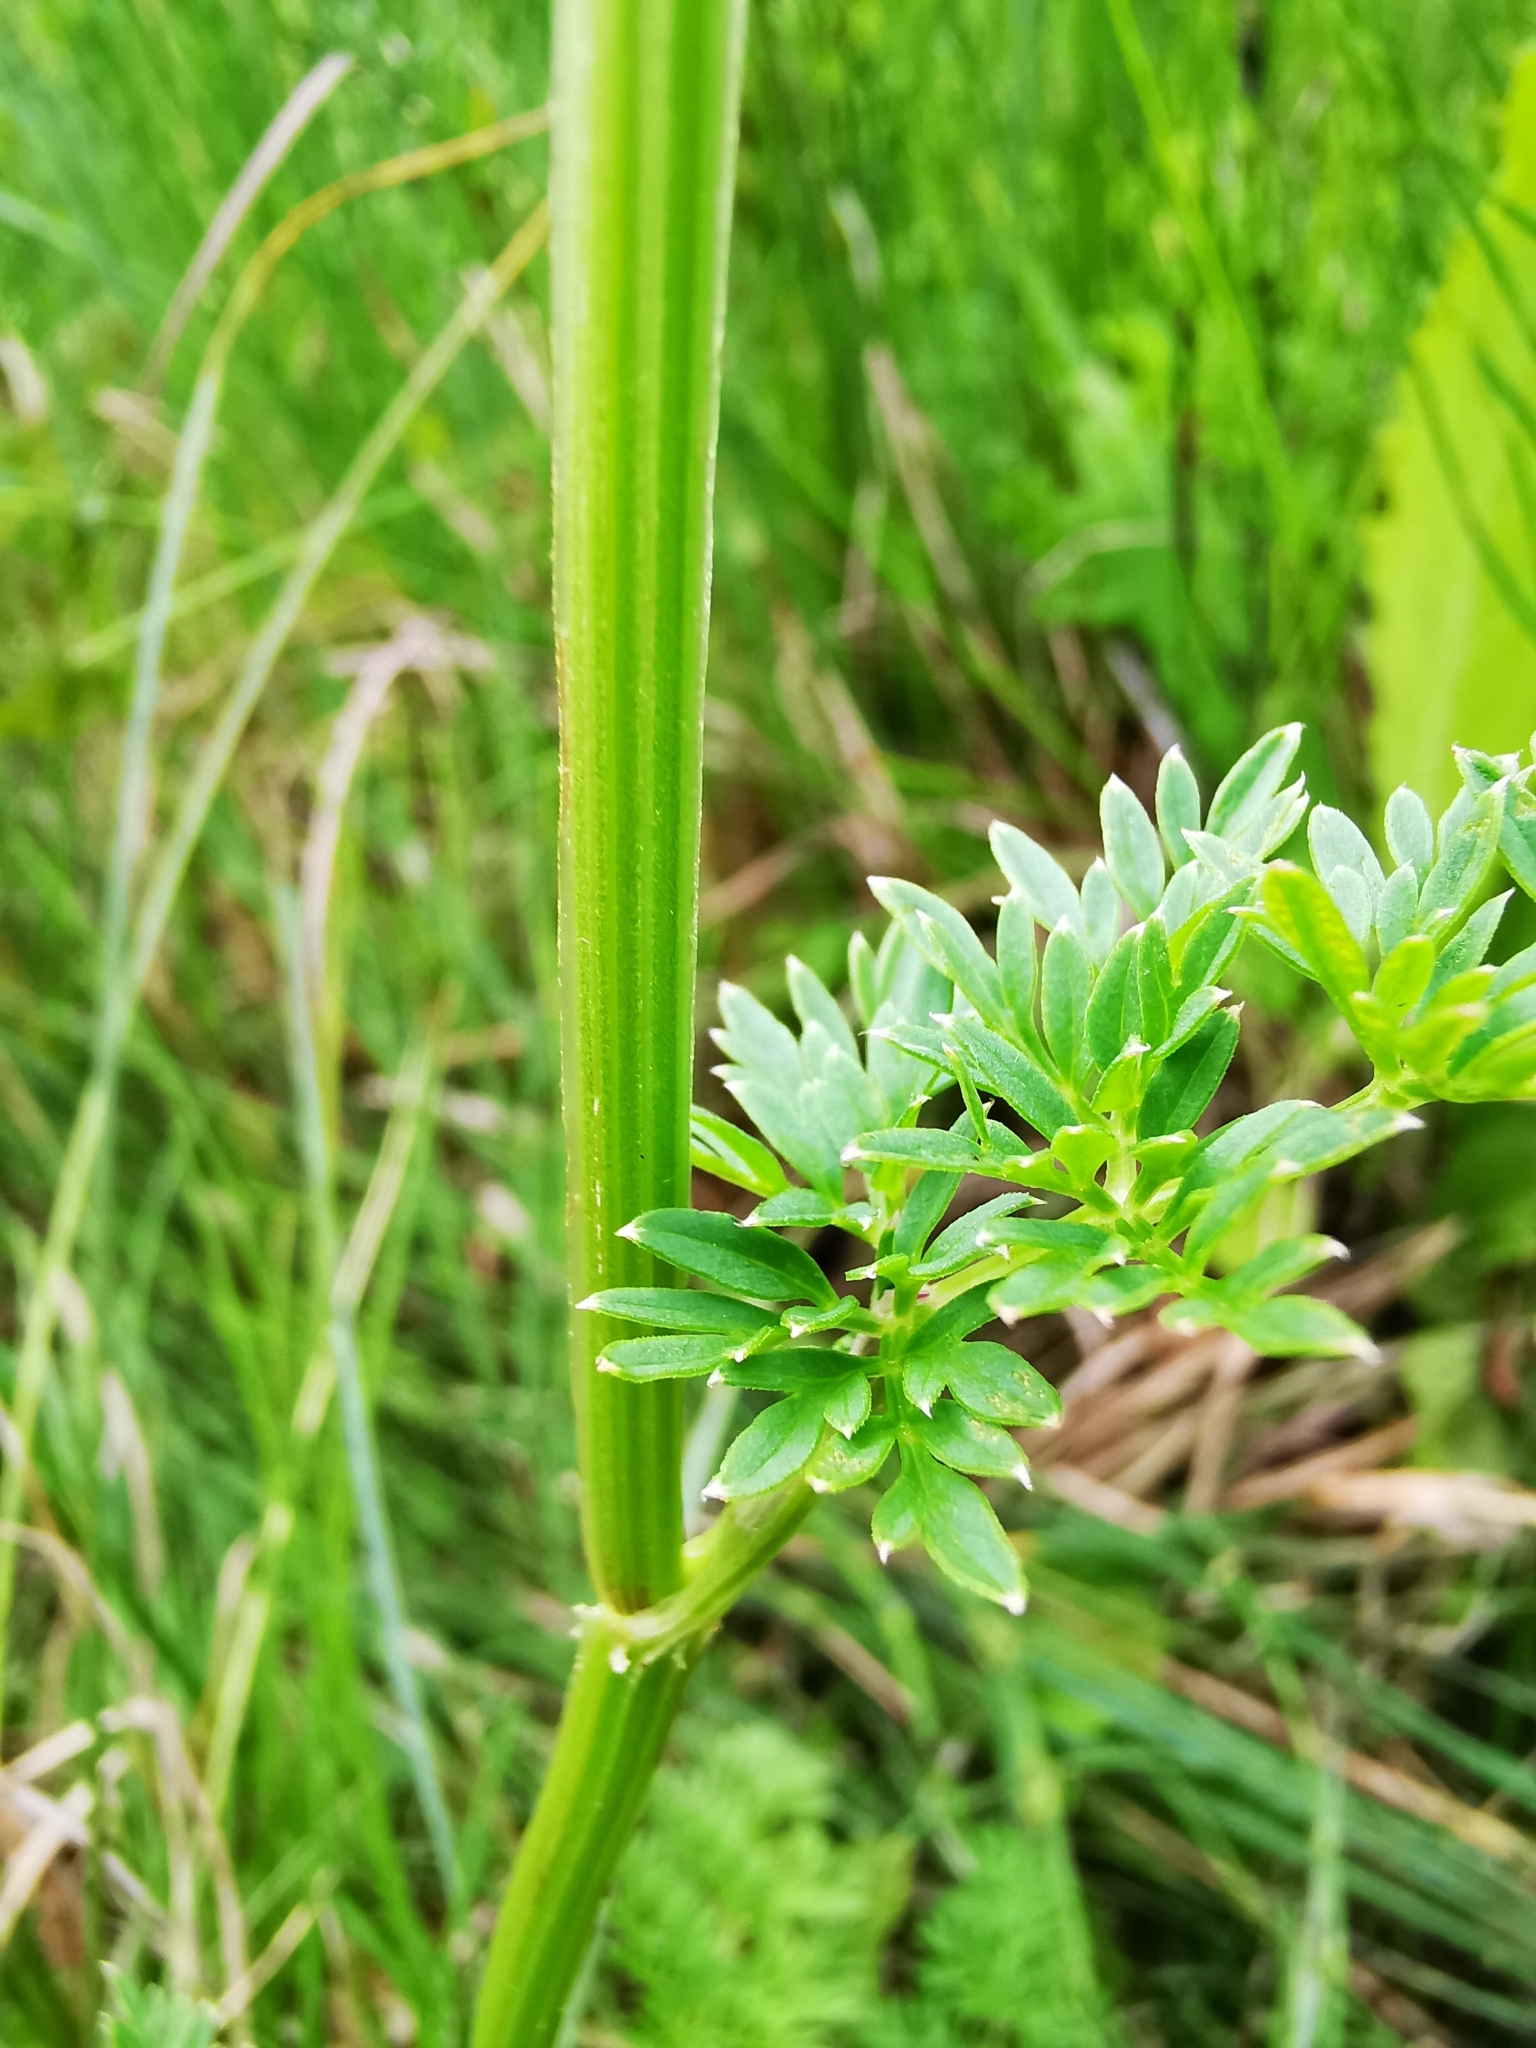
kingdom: Plantae
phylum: Tracheophyta
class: Magnoliopsida
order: Apiales
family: Apiaceae
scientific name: Apiaceae
